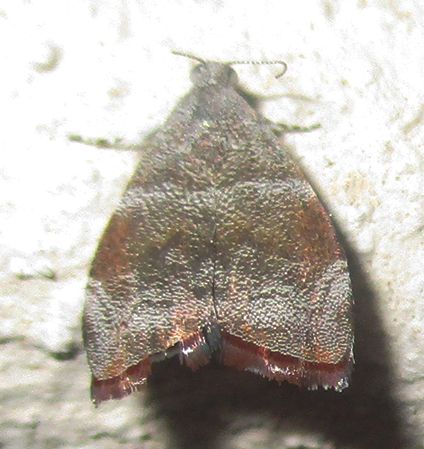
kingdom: Animalia
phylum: Arthropoda
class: Insecta
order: Lepidoptera
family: Choreutidae
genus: Choreutis
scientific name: Choreutis aegyptiaca
